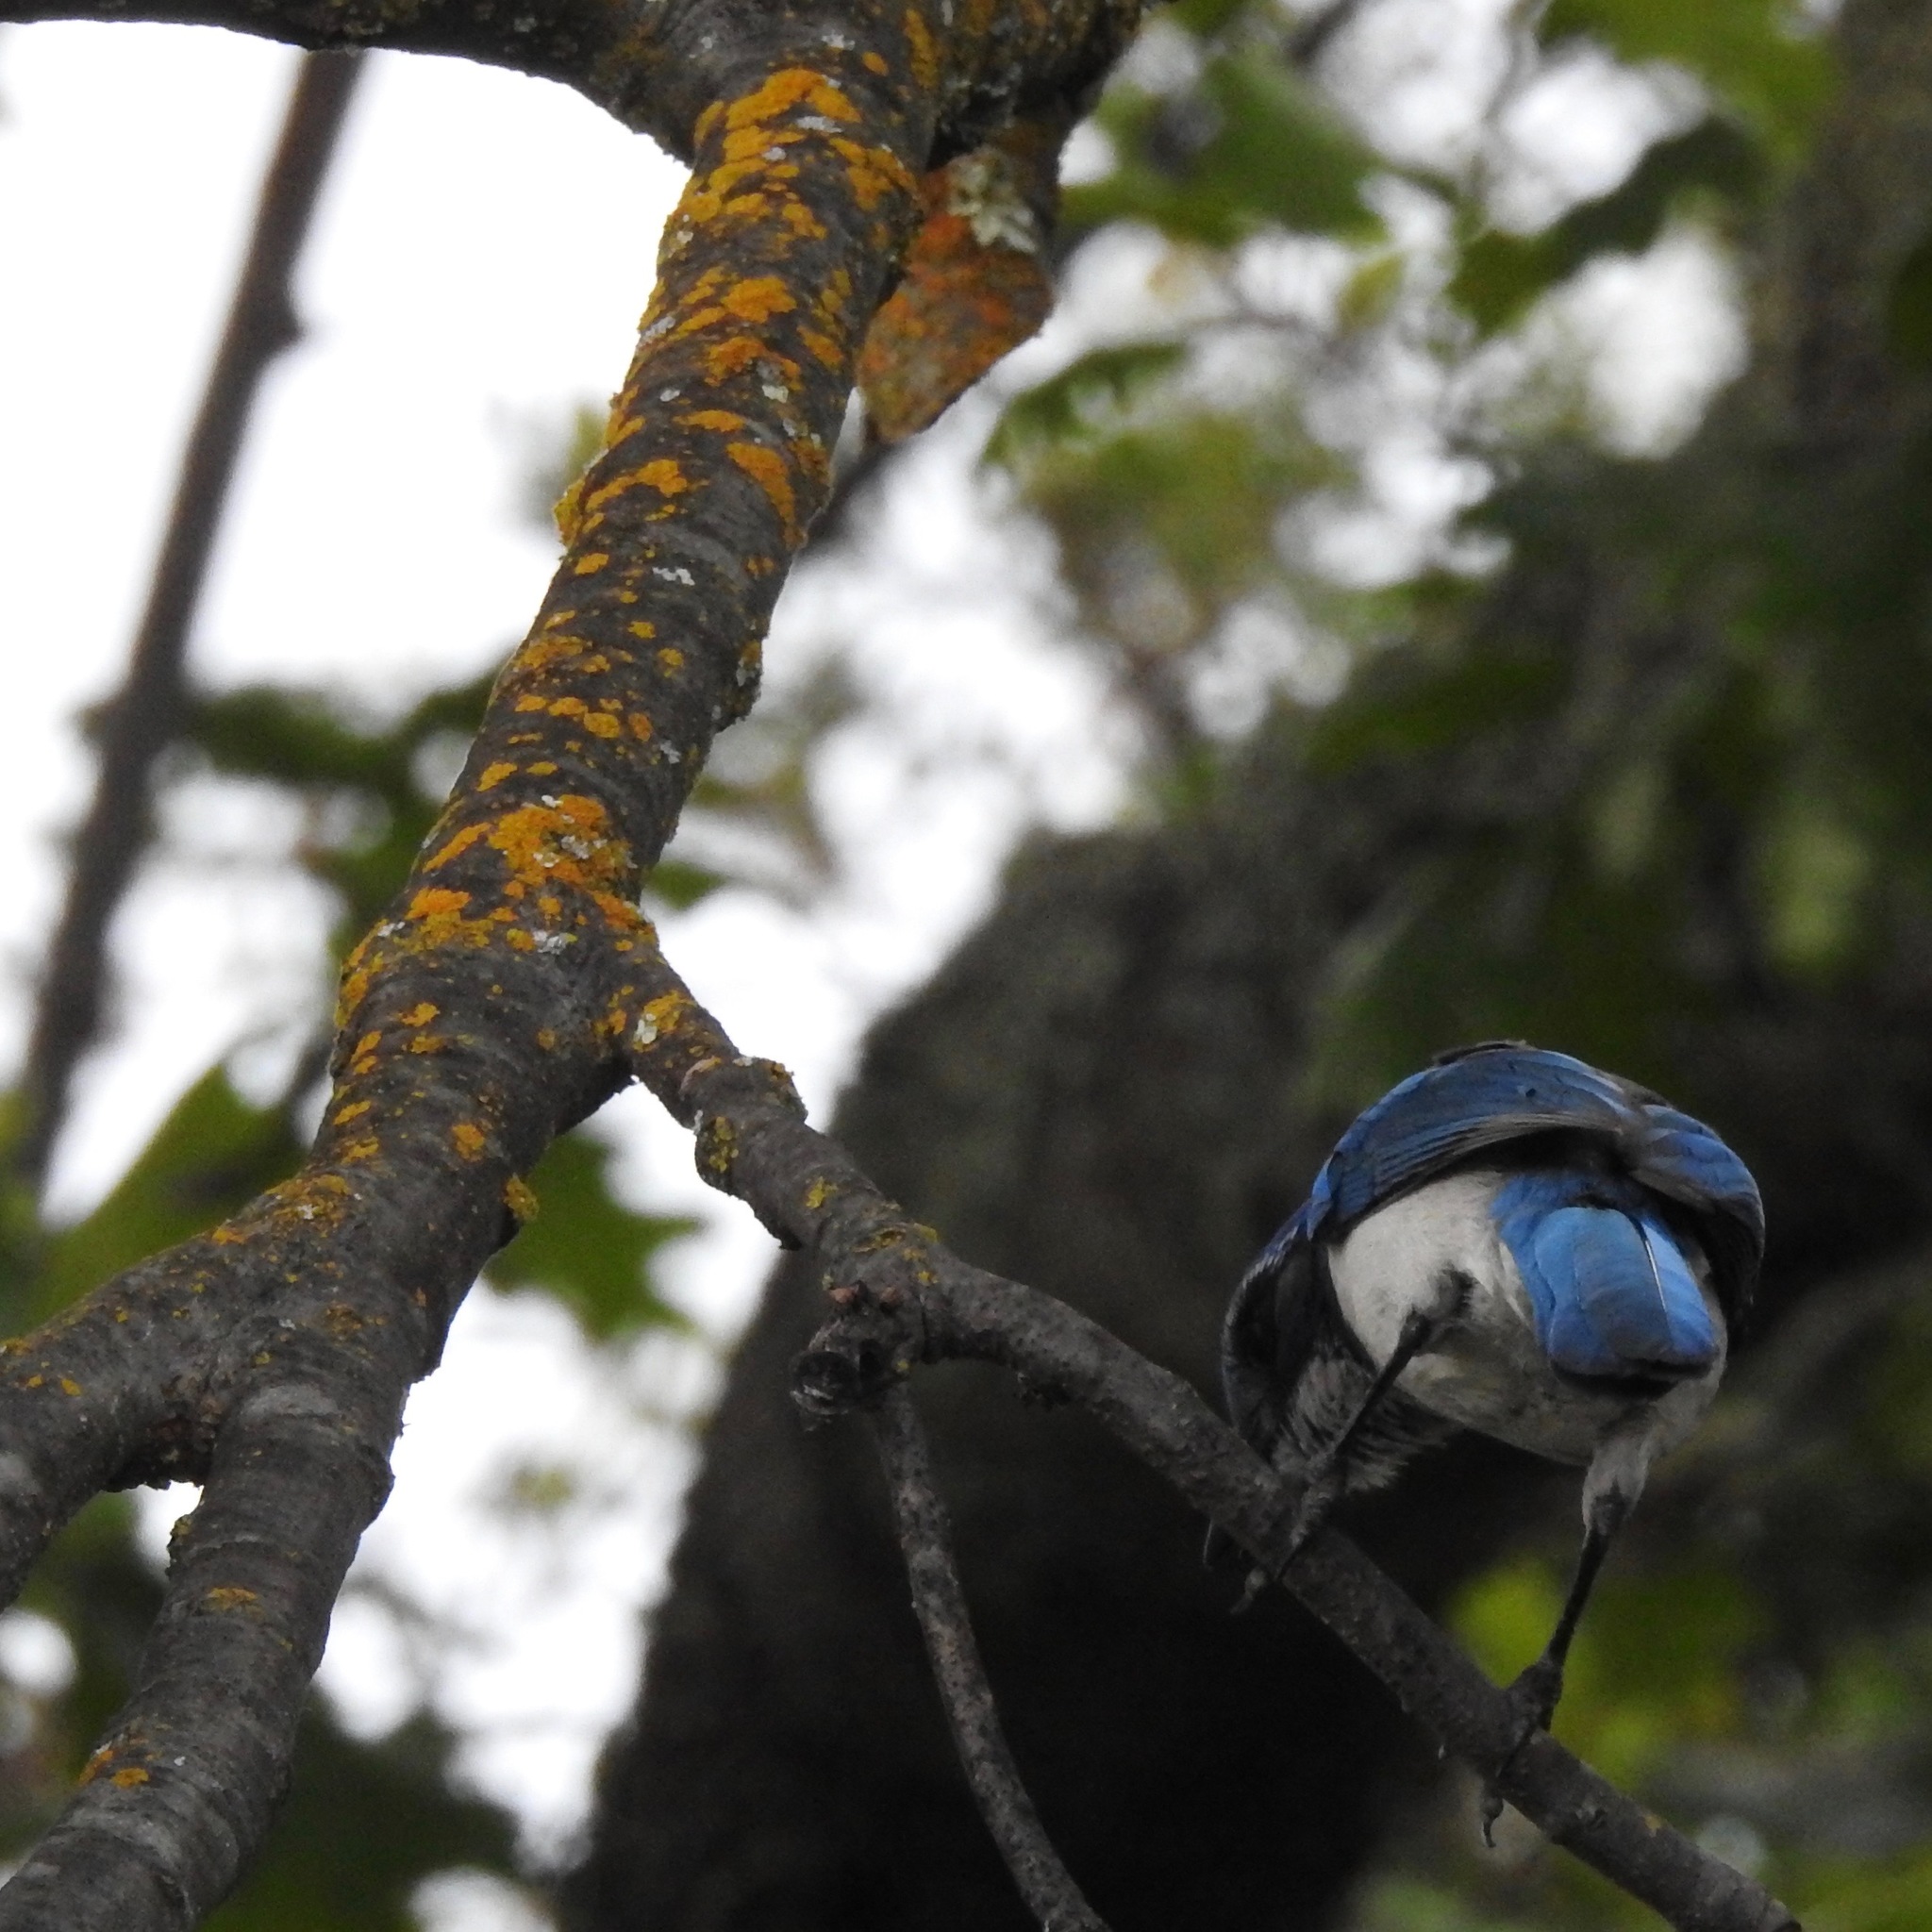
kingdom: Animalia
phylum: Chordata
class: Aves
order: Passeriformes
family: Corvidae
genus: Aphelocoma
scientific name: Aphelocoma californica
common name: California scrub-jay
